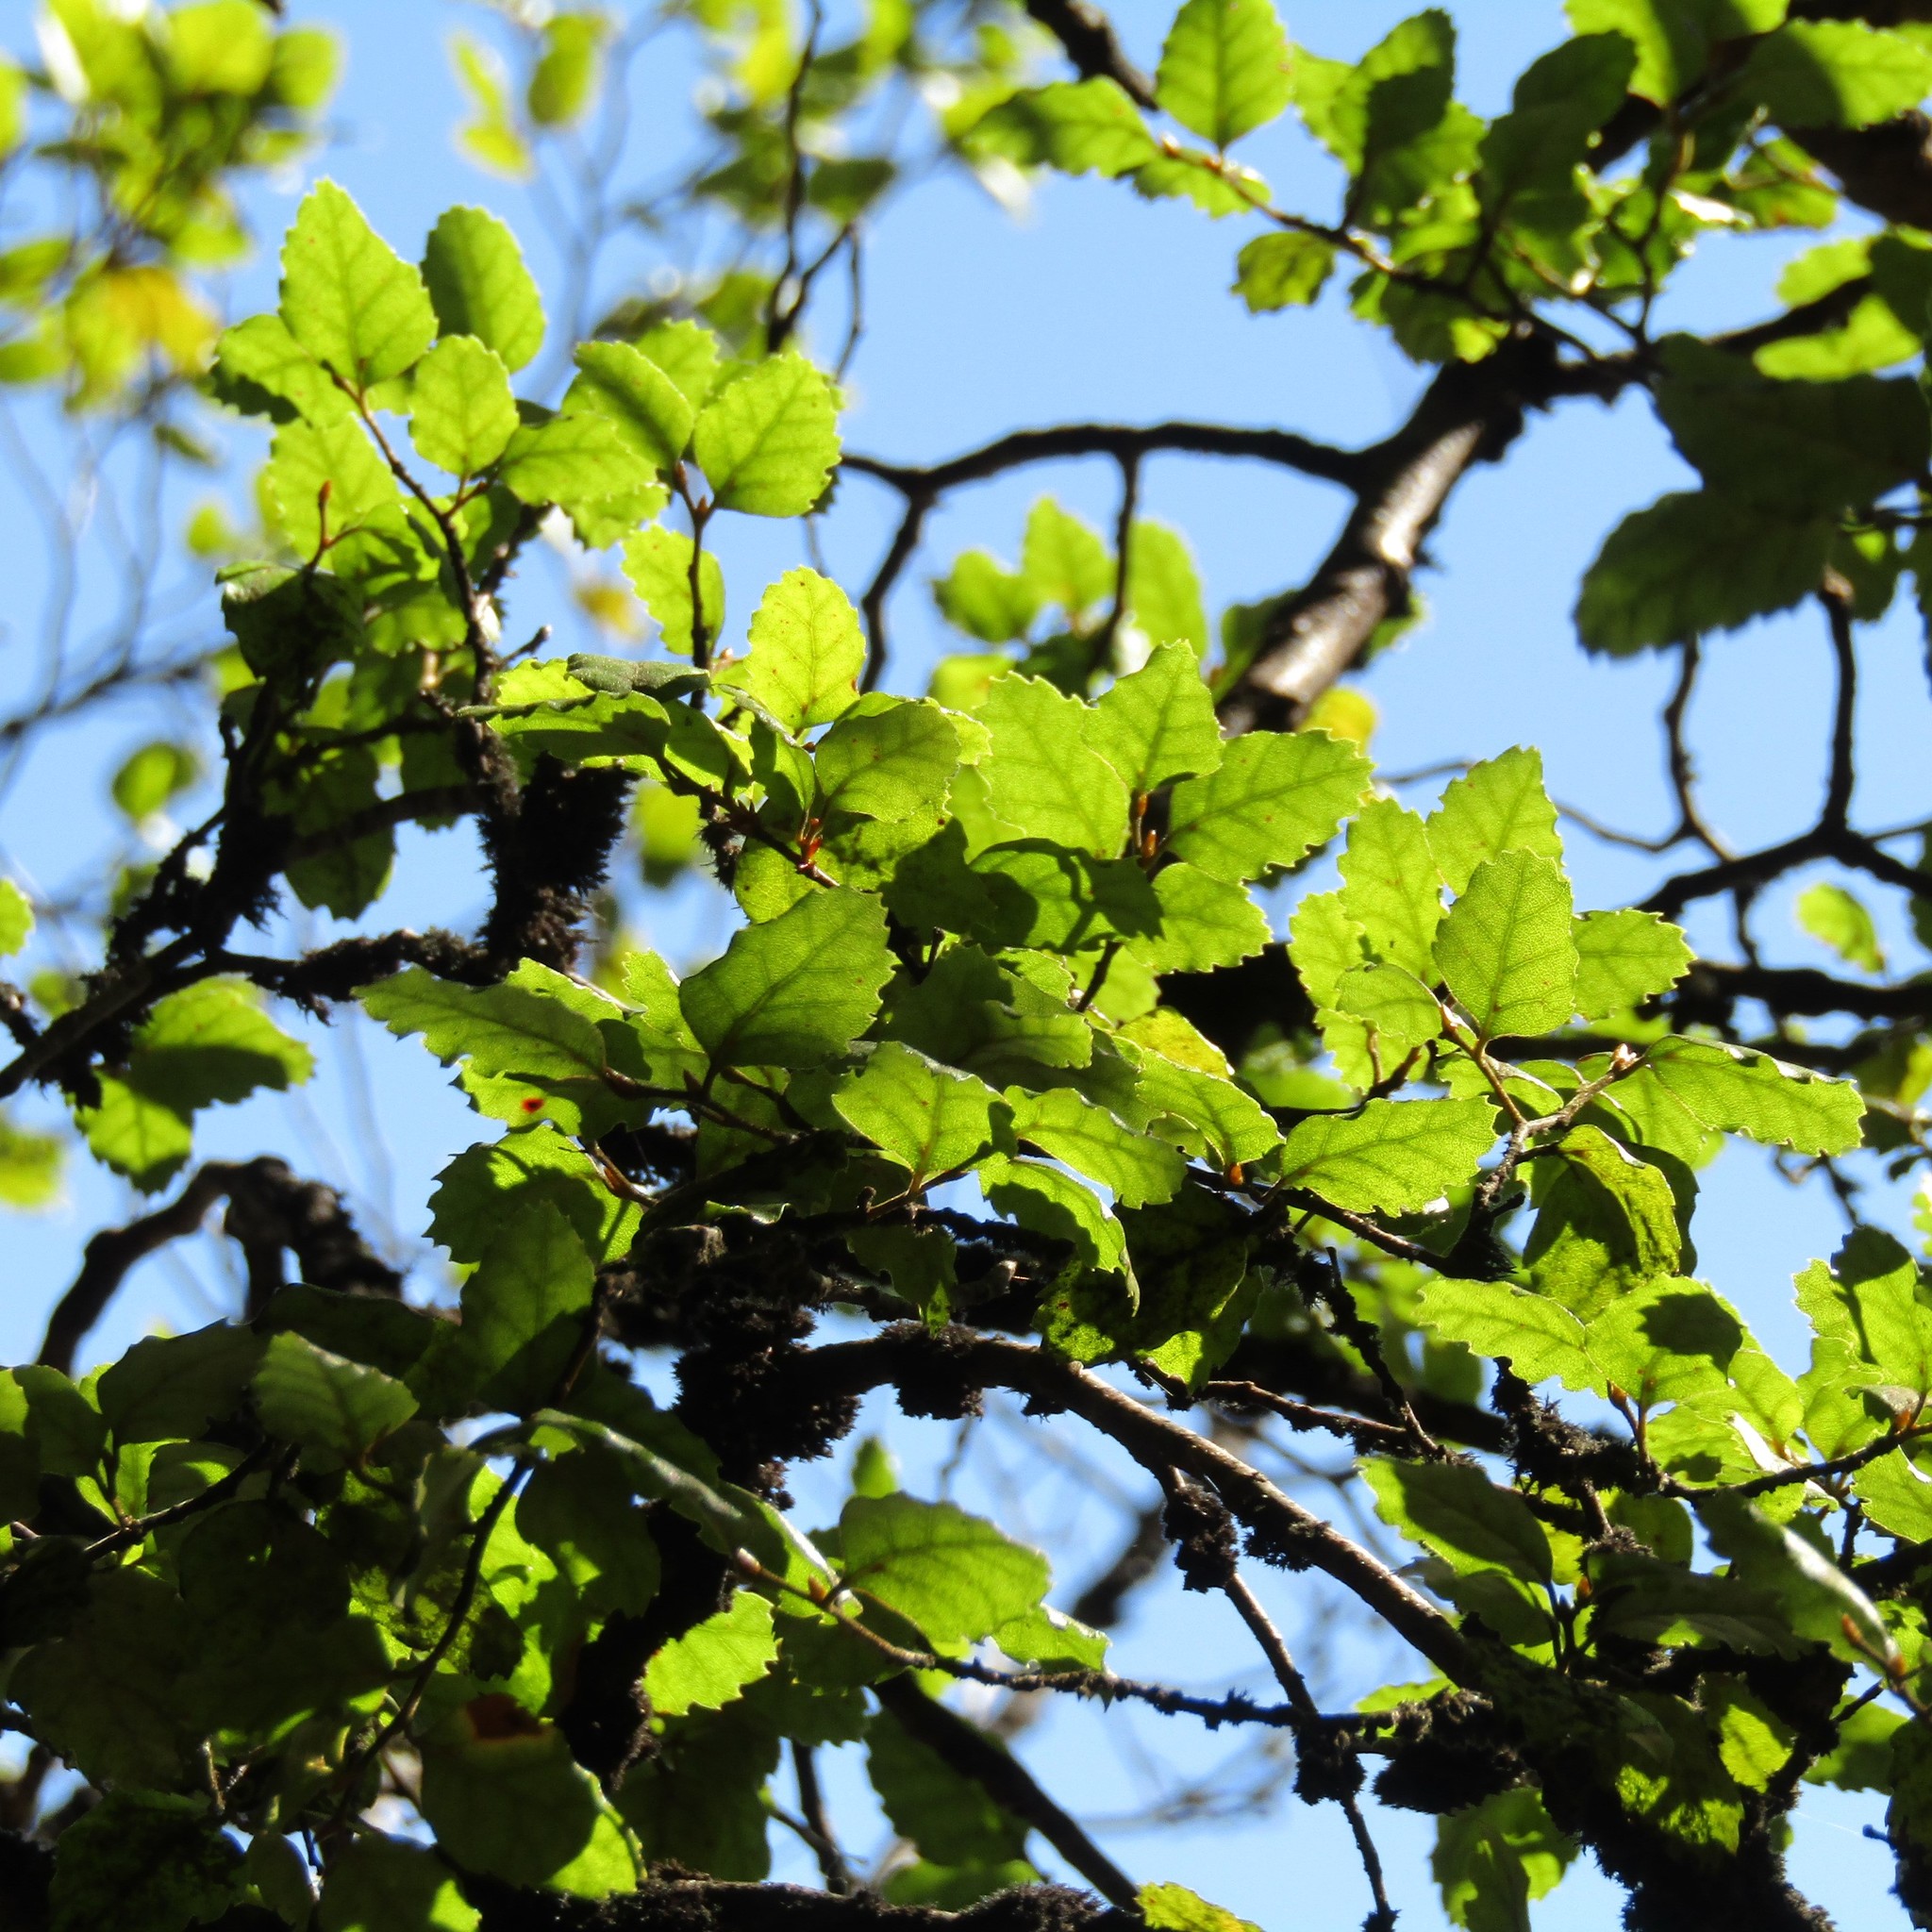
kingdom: Plantae
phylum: Tracheophyta
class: Magnoliopsida
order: Fagales
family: Nothofagaceae
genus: Nothofagus
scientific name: Nothofagus fusca
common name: Red beech
